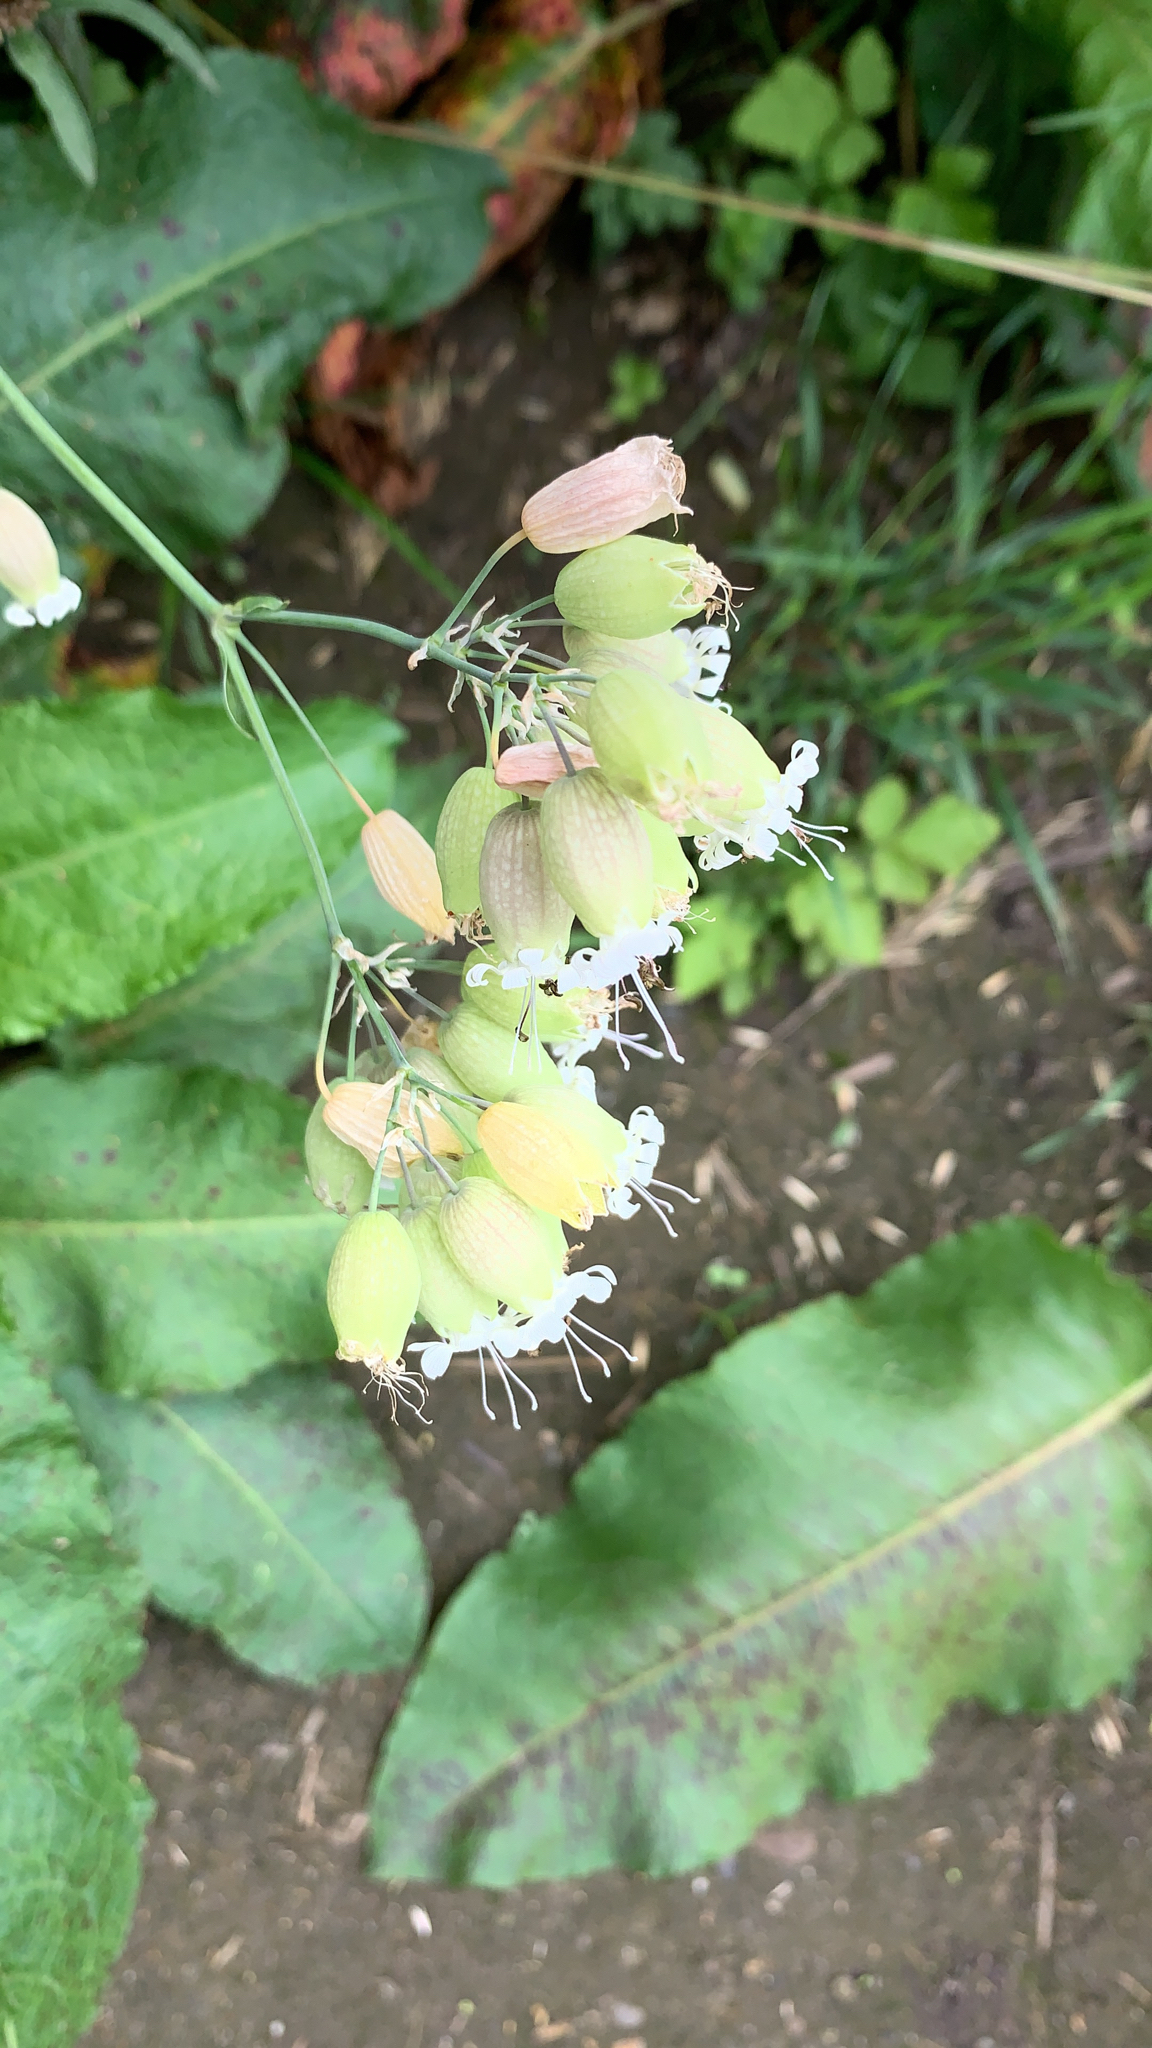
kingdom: Plantae
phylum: Tracheophyta
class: Magnoliopsida
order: Caryophyllales
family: Caryophyllaceae
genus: Silene
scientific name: Silene vulgaris
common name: Bladder campion
